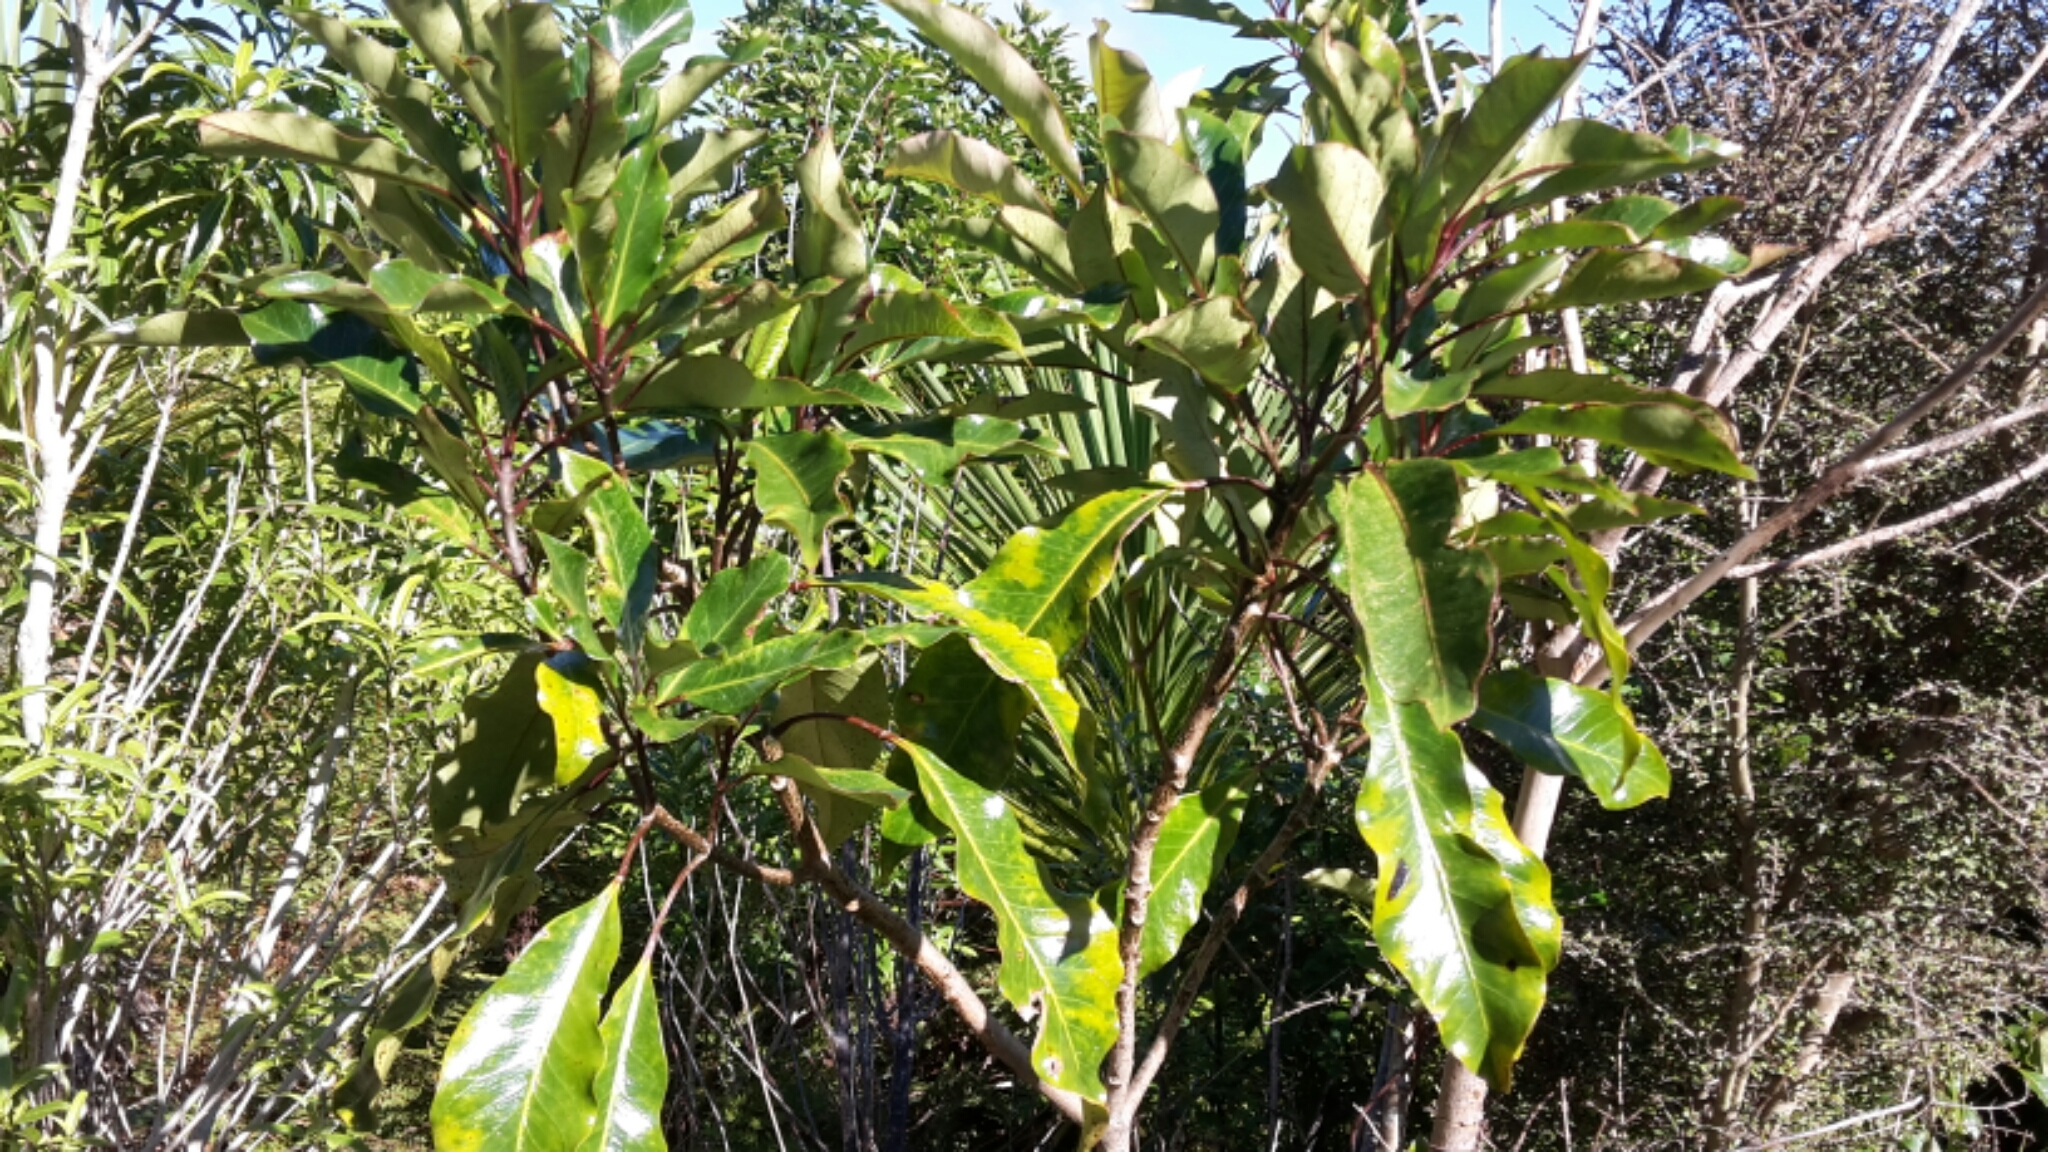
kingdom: Plantae
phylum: Tracheophyta
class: Magnoliopsida
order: Apiales
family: Araliaceae
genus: Raukaua
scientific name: Raukaua edgerleyi
